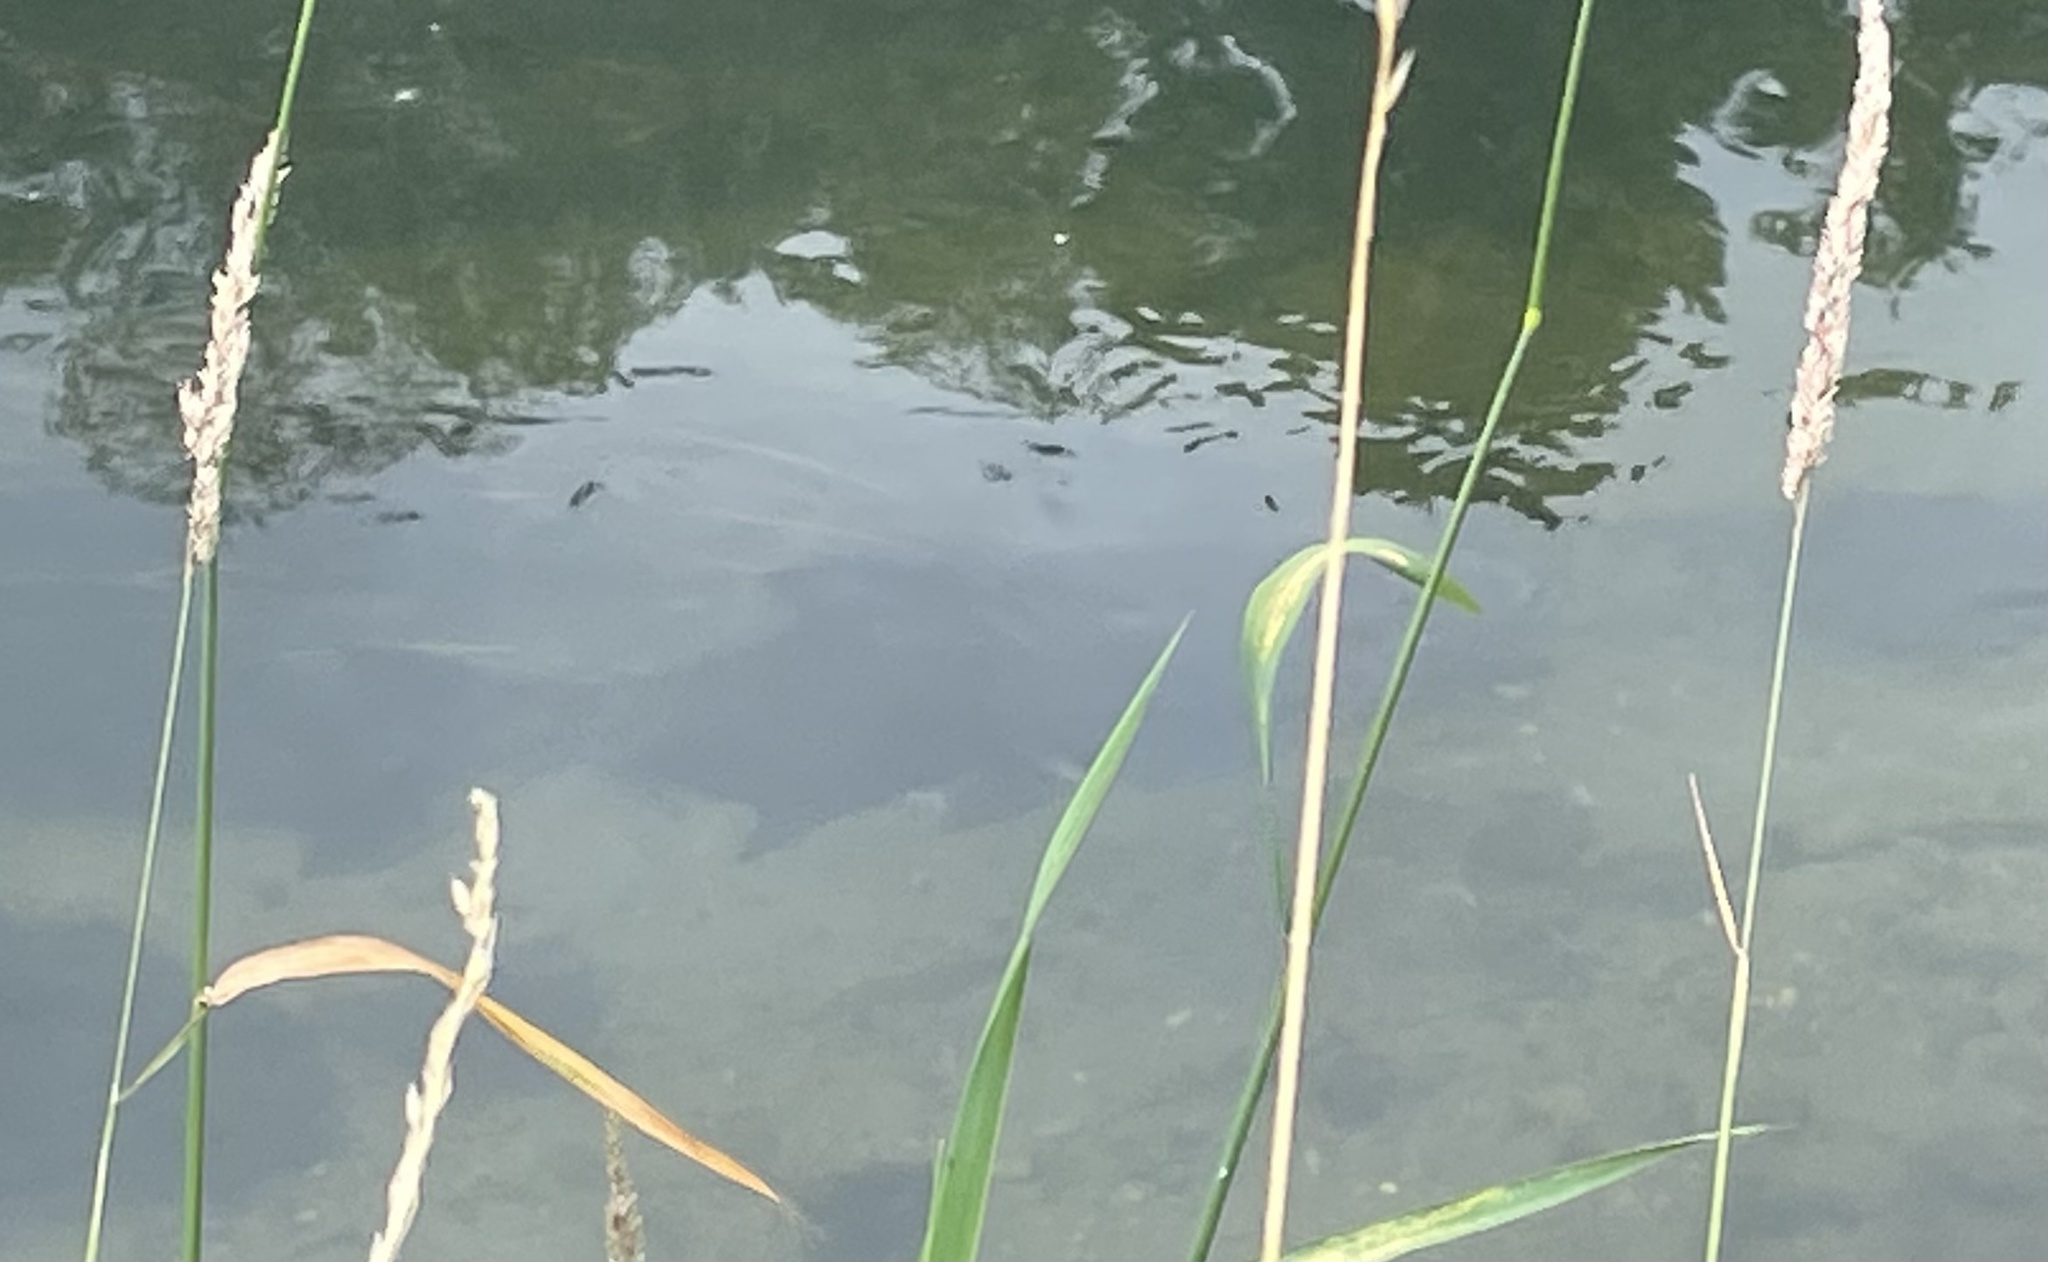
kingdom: Animalia
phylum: Chordata
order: Cypriniformes
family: Cyprinidae
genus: Abramis
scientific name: Abramis brama
